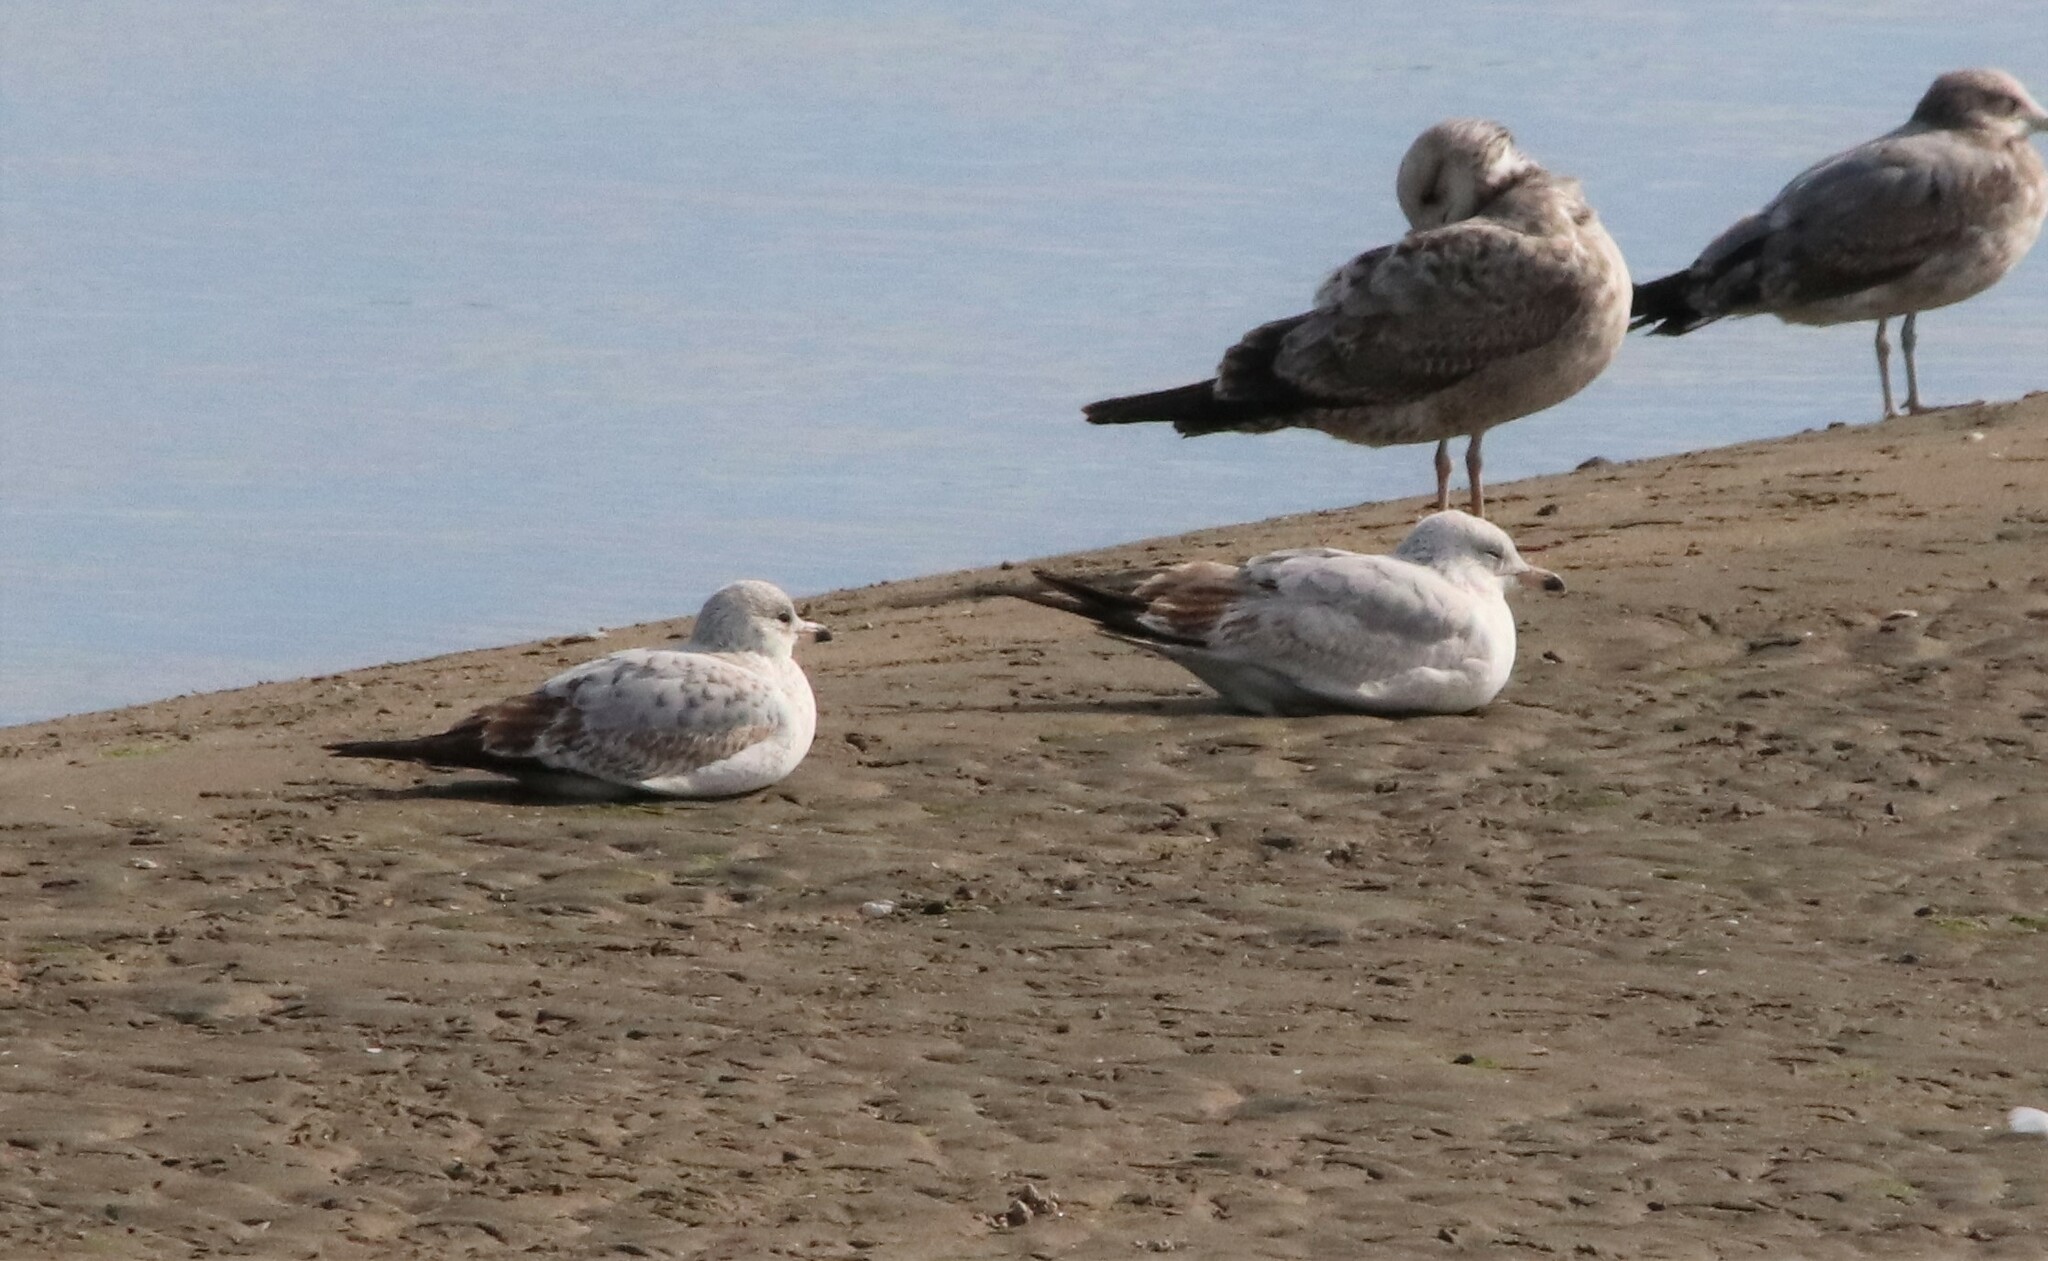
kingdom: Animalia
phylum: Chordata
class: Aves
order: Charadriiformes
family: Laridae
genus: Larus
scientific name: Larus delawarensis
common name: Ring-billed gull
